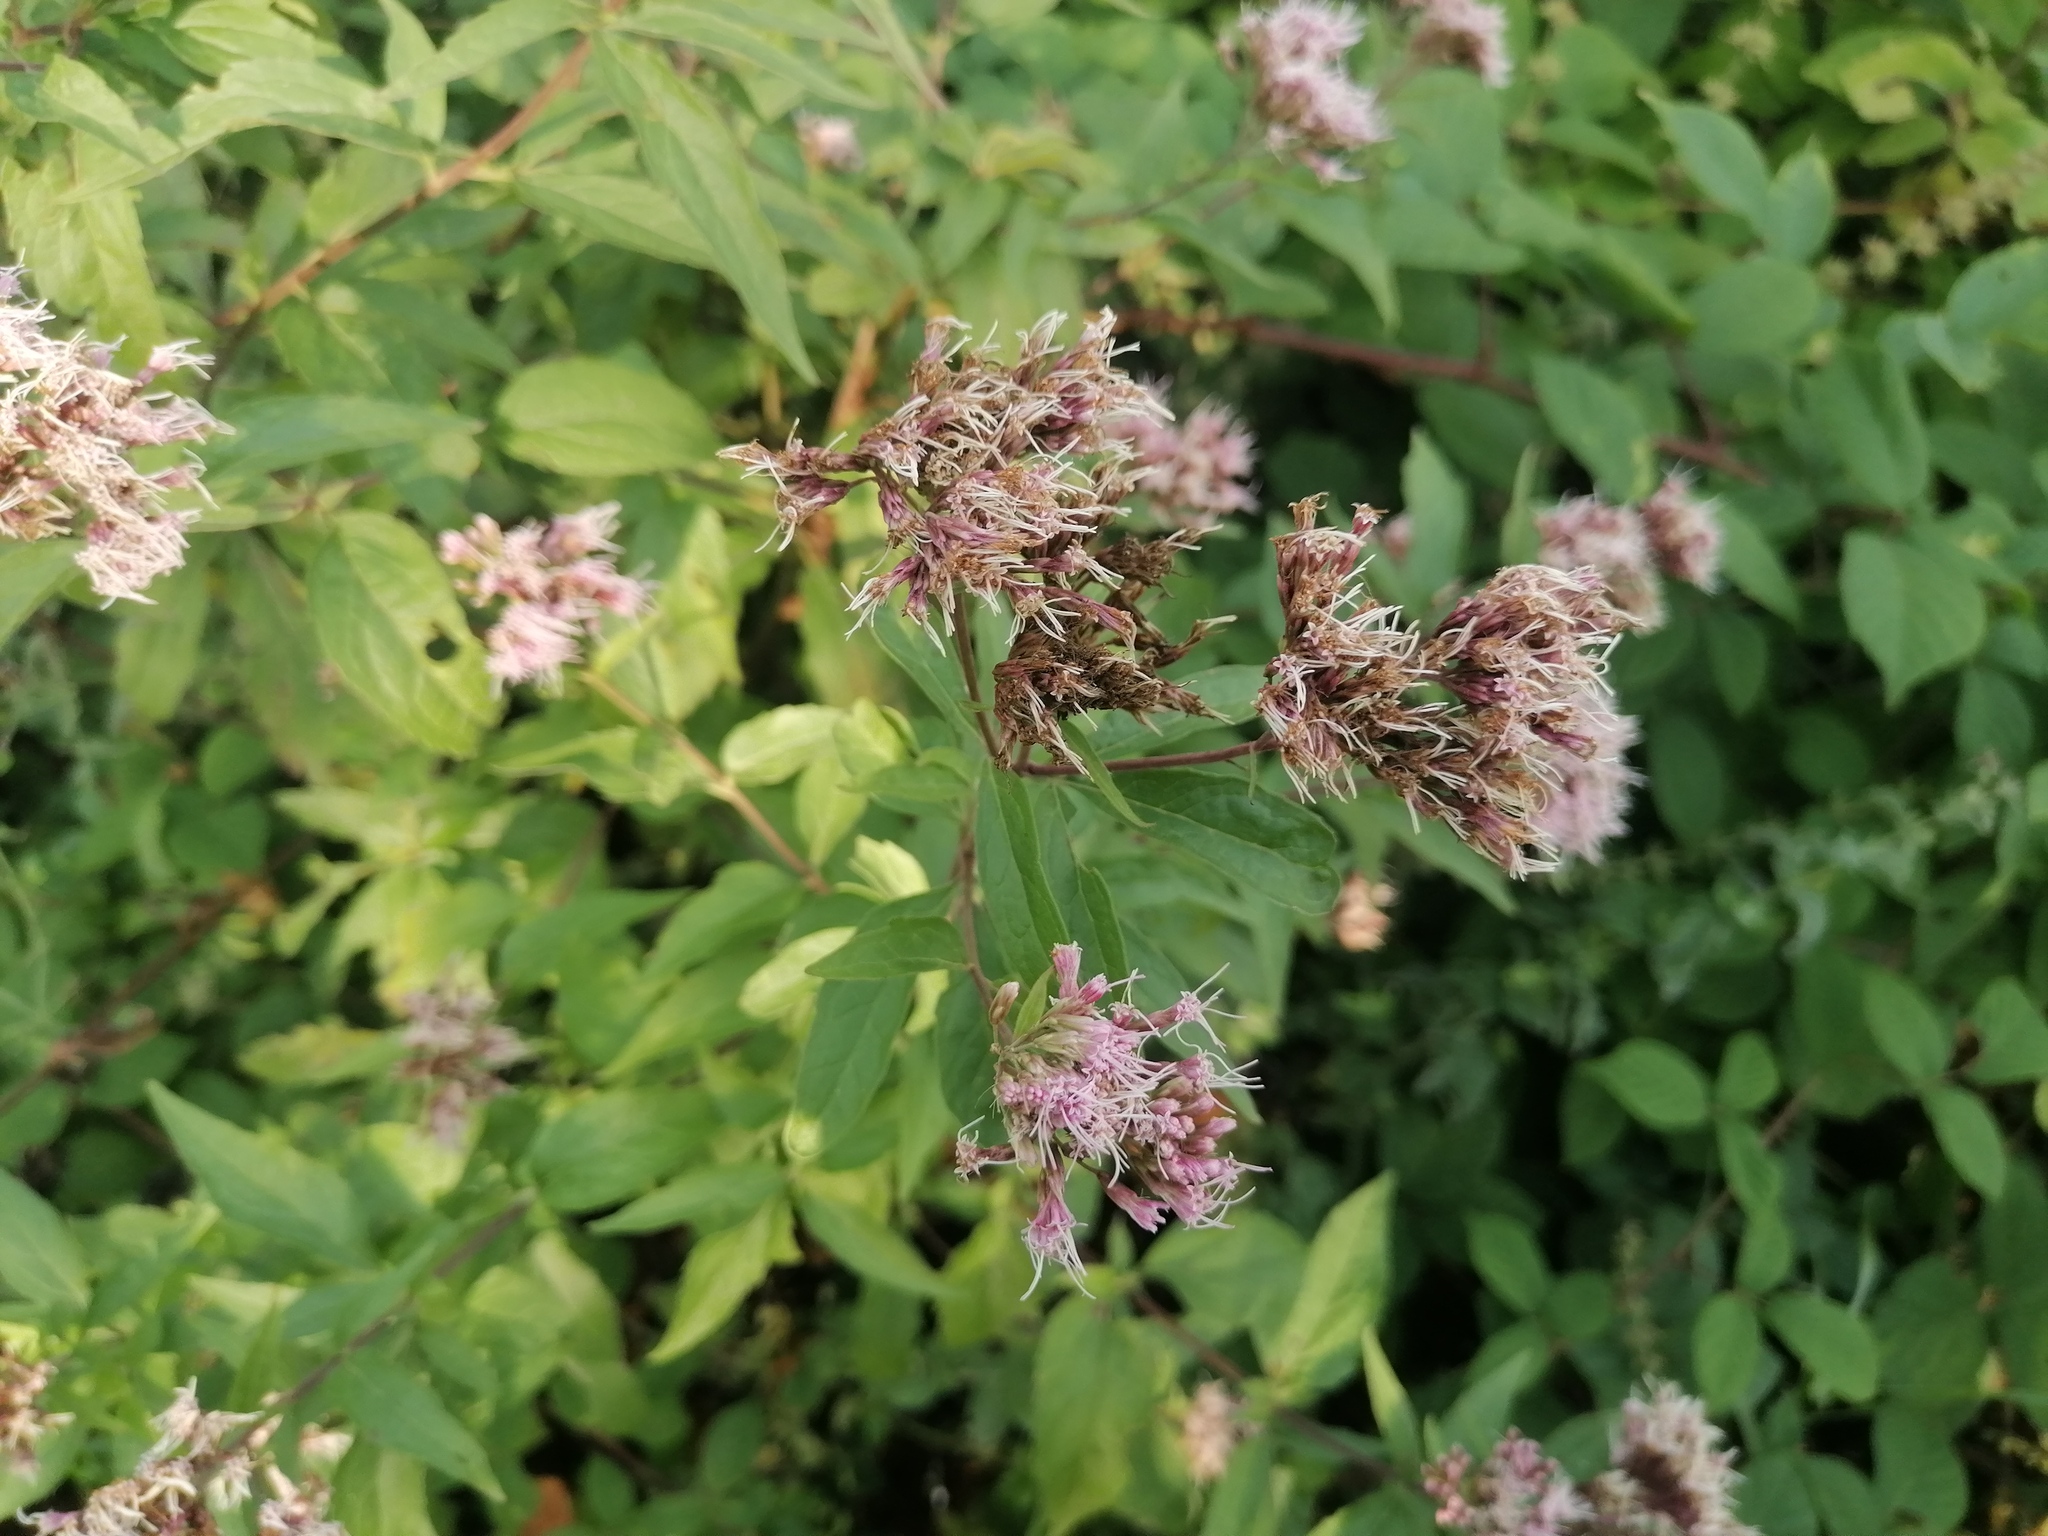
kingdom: Plantae
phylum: Tracheophyta
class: Magnoliopsida
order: Asterales
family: Asteraceae
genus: Eupatorium
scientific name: Eupatorium cannabinum
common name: Hemp-agrimony
